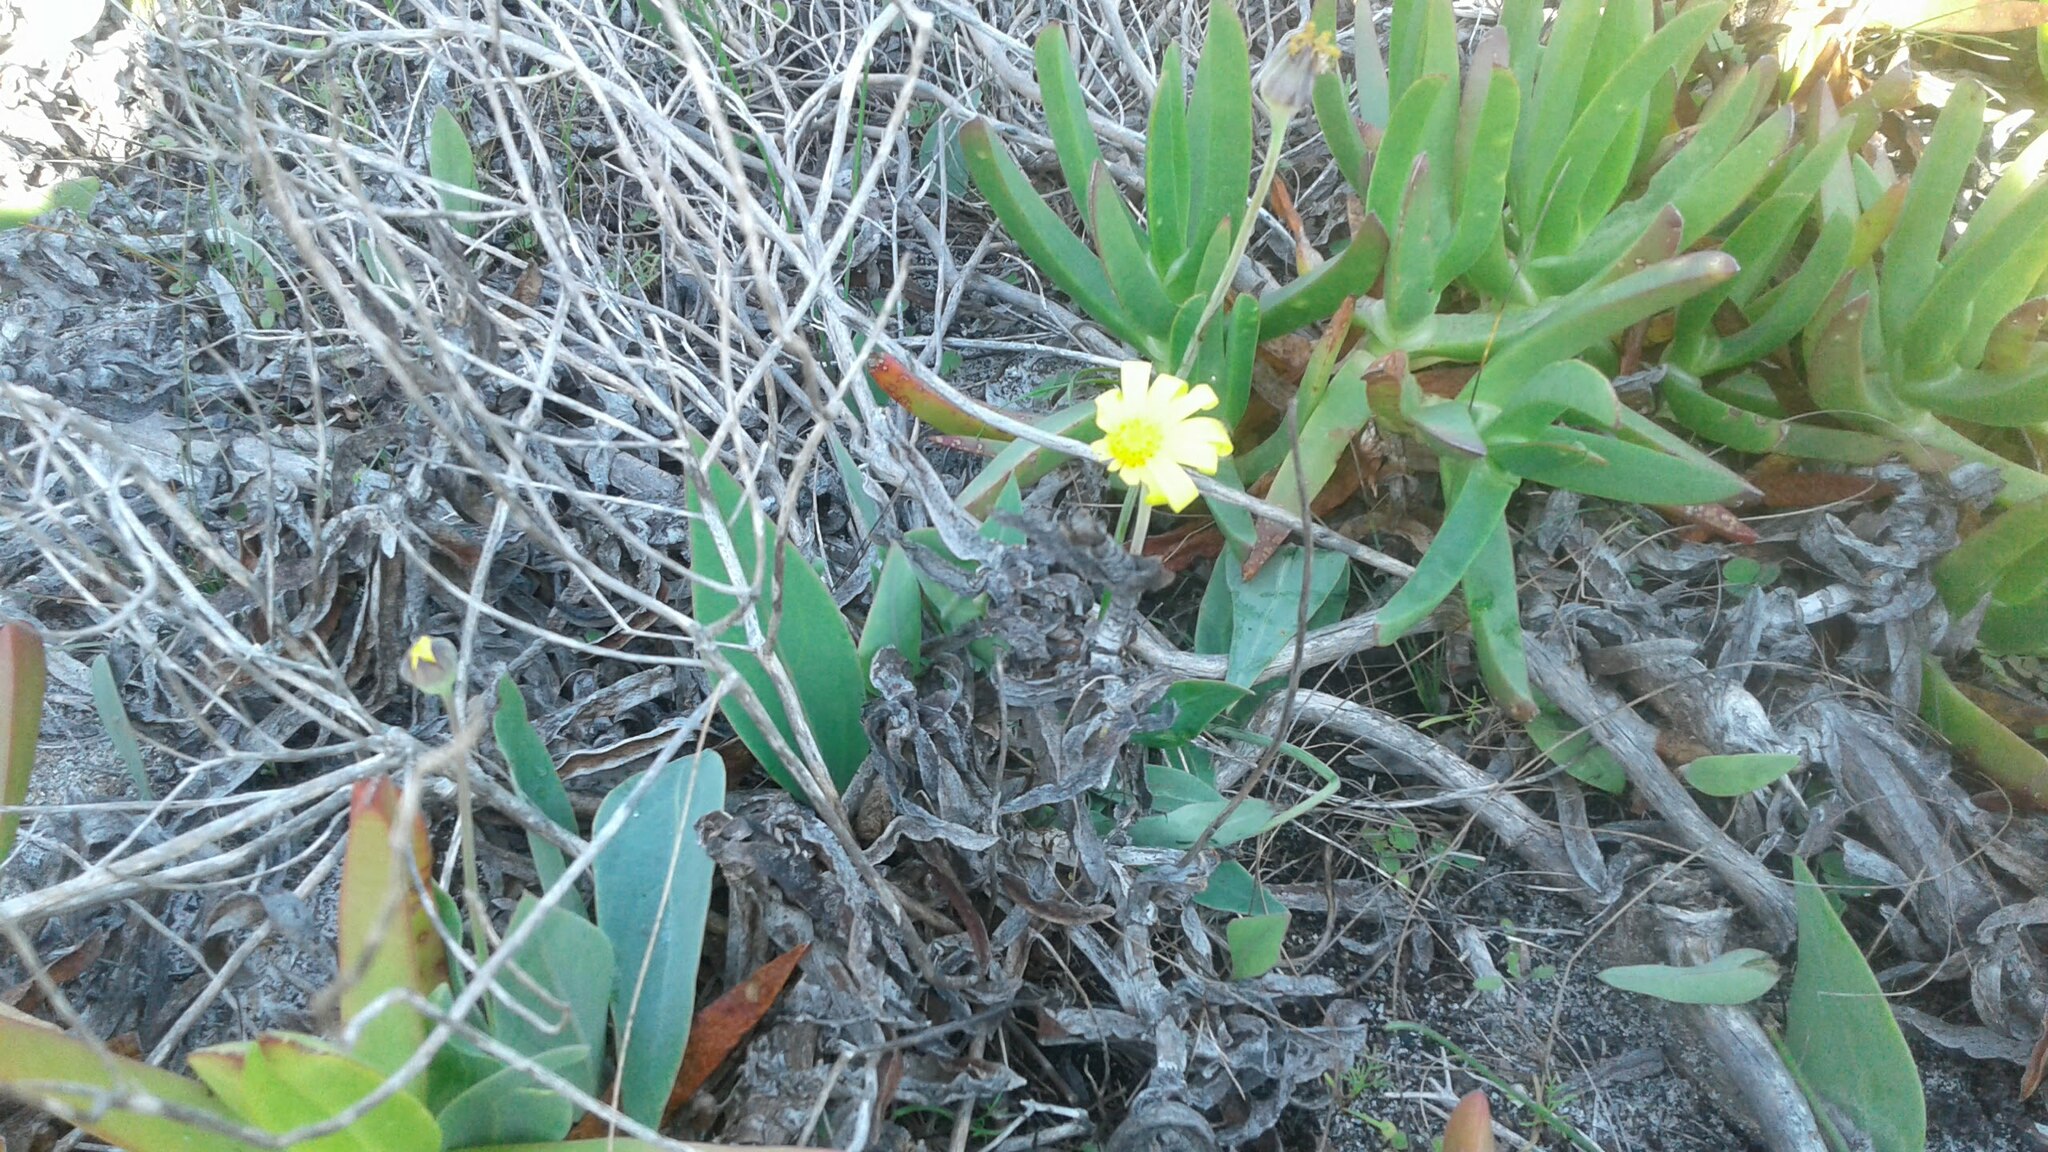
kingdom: Plantae
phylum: Tracheophyta
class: Magnoliopsida
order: Asterales
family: Asteraceae
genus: Othonna
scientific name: Othonna bulbosa
